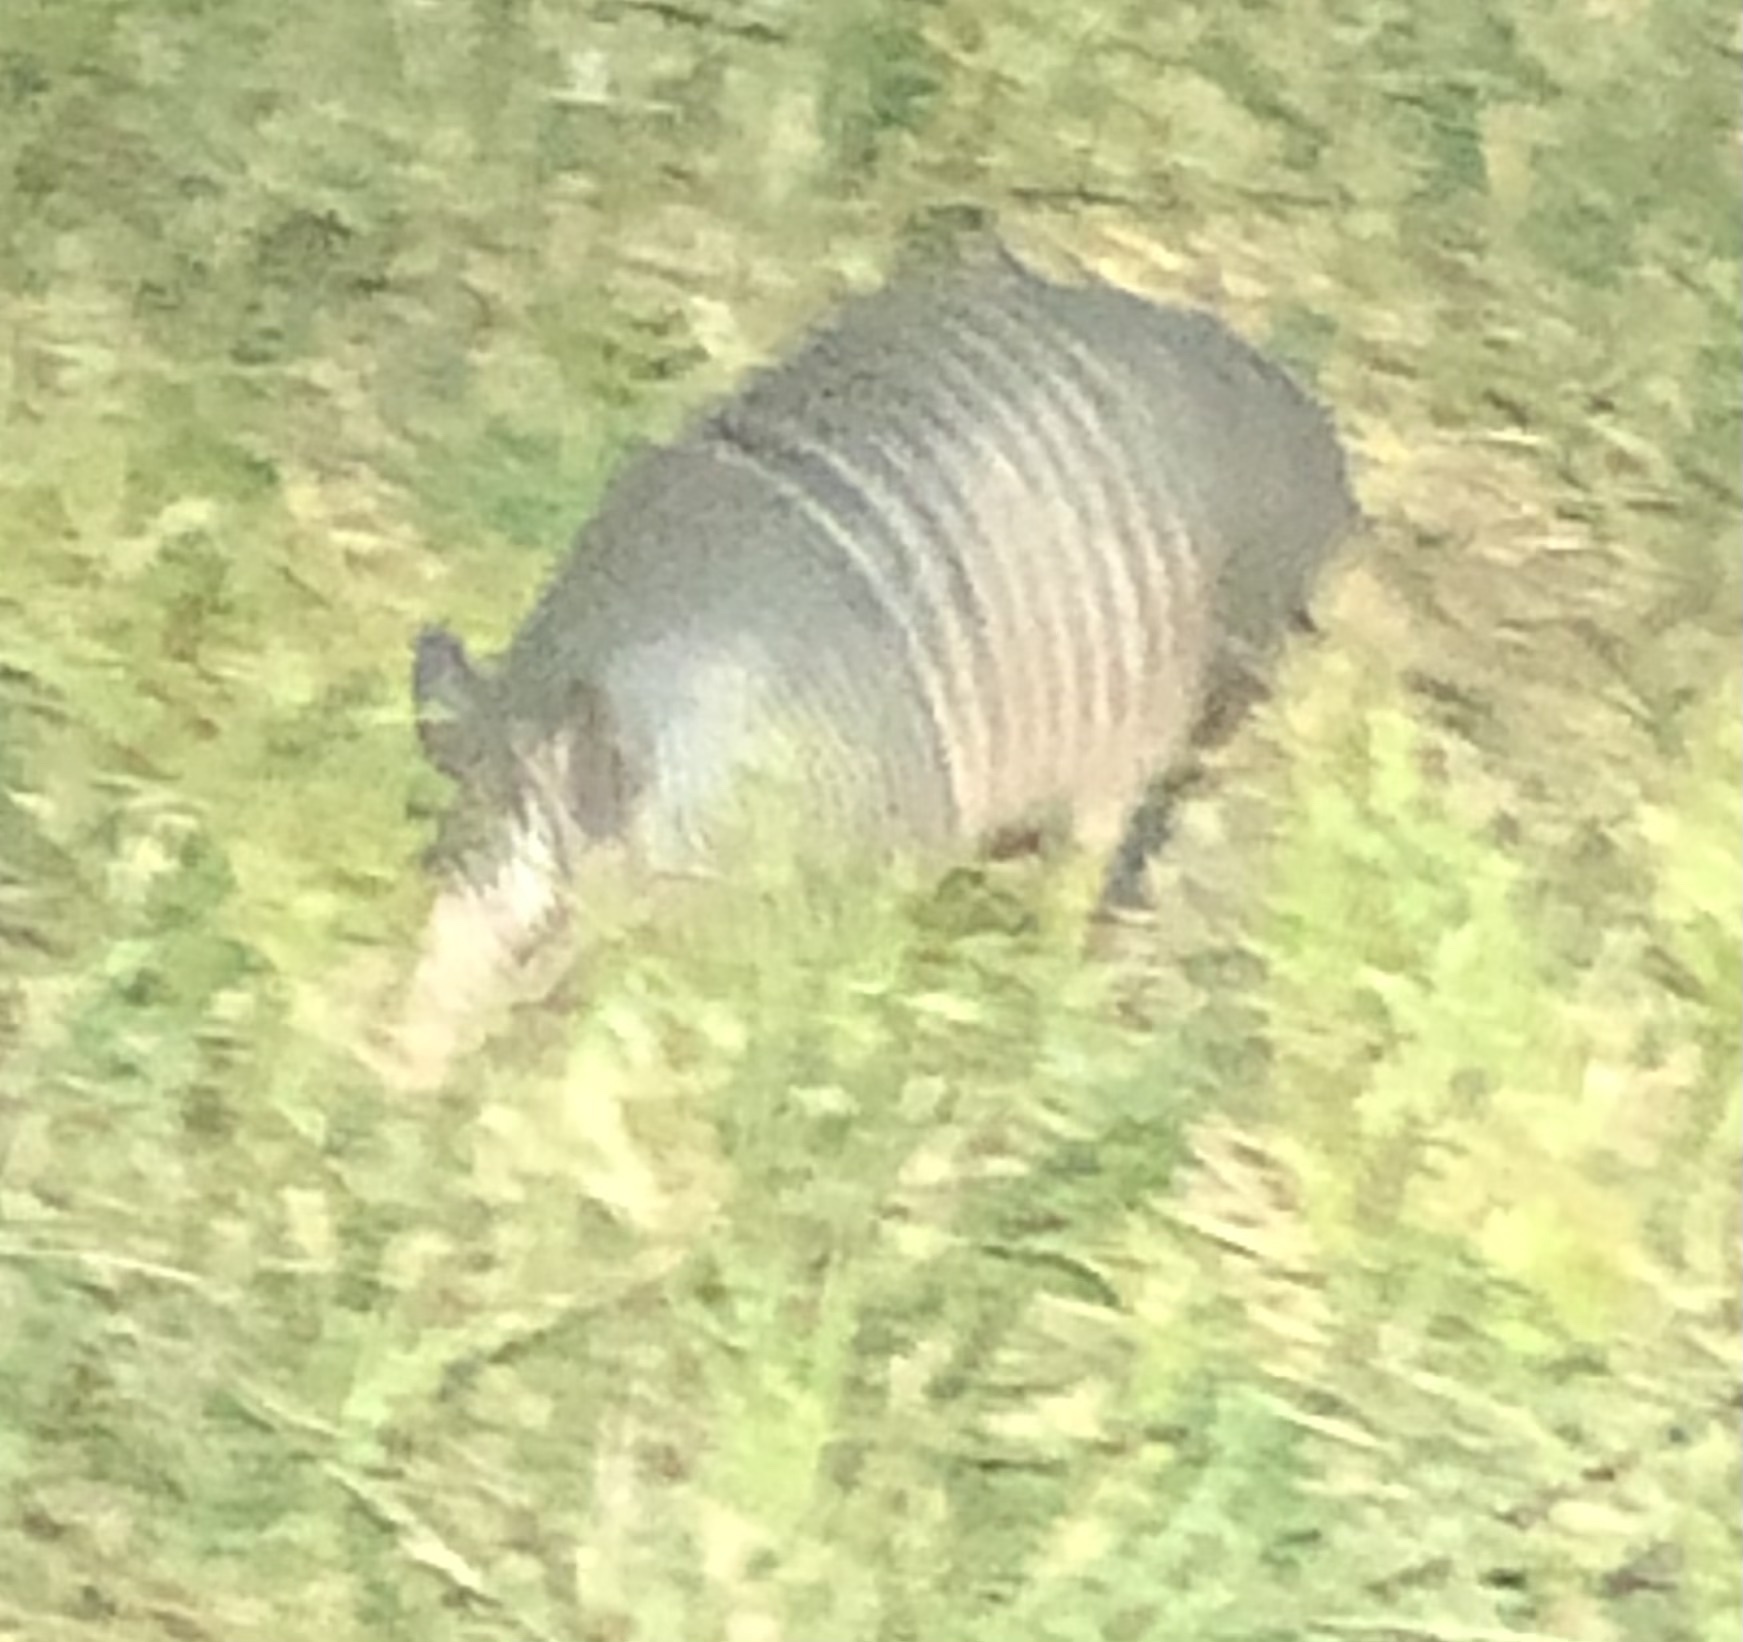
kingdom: Animalia
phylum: Chordata
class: Mammalia
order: Cingulata
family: Dasypodidae
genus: Dasypus
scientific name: Dasypus novemcinctus
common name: Nine-banded armadillo
